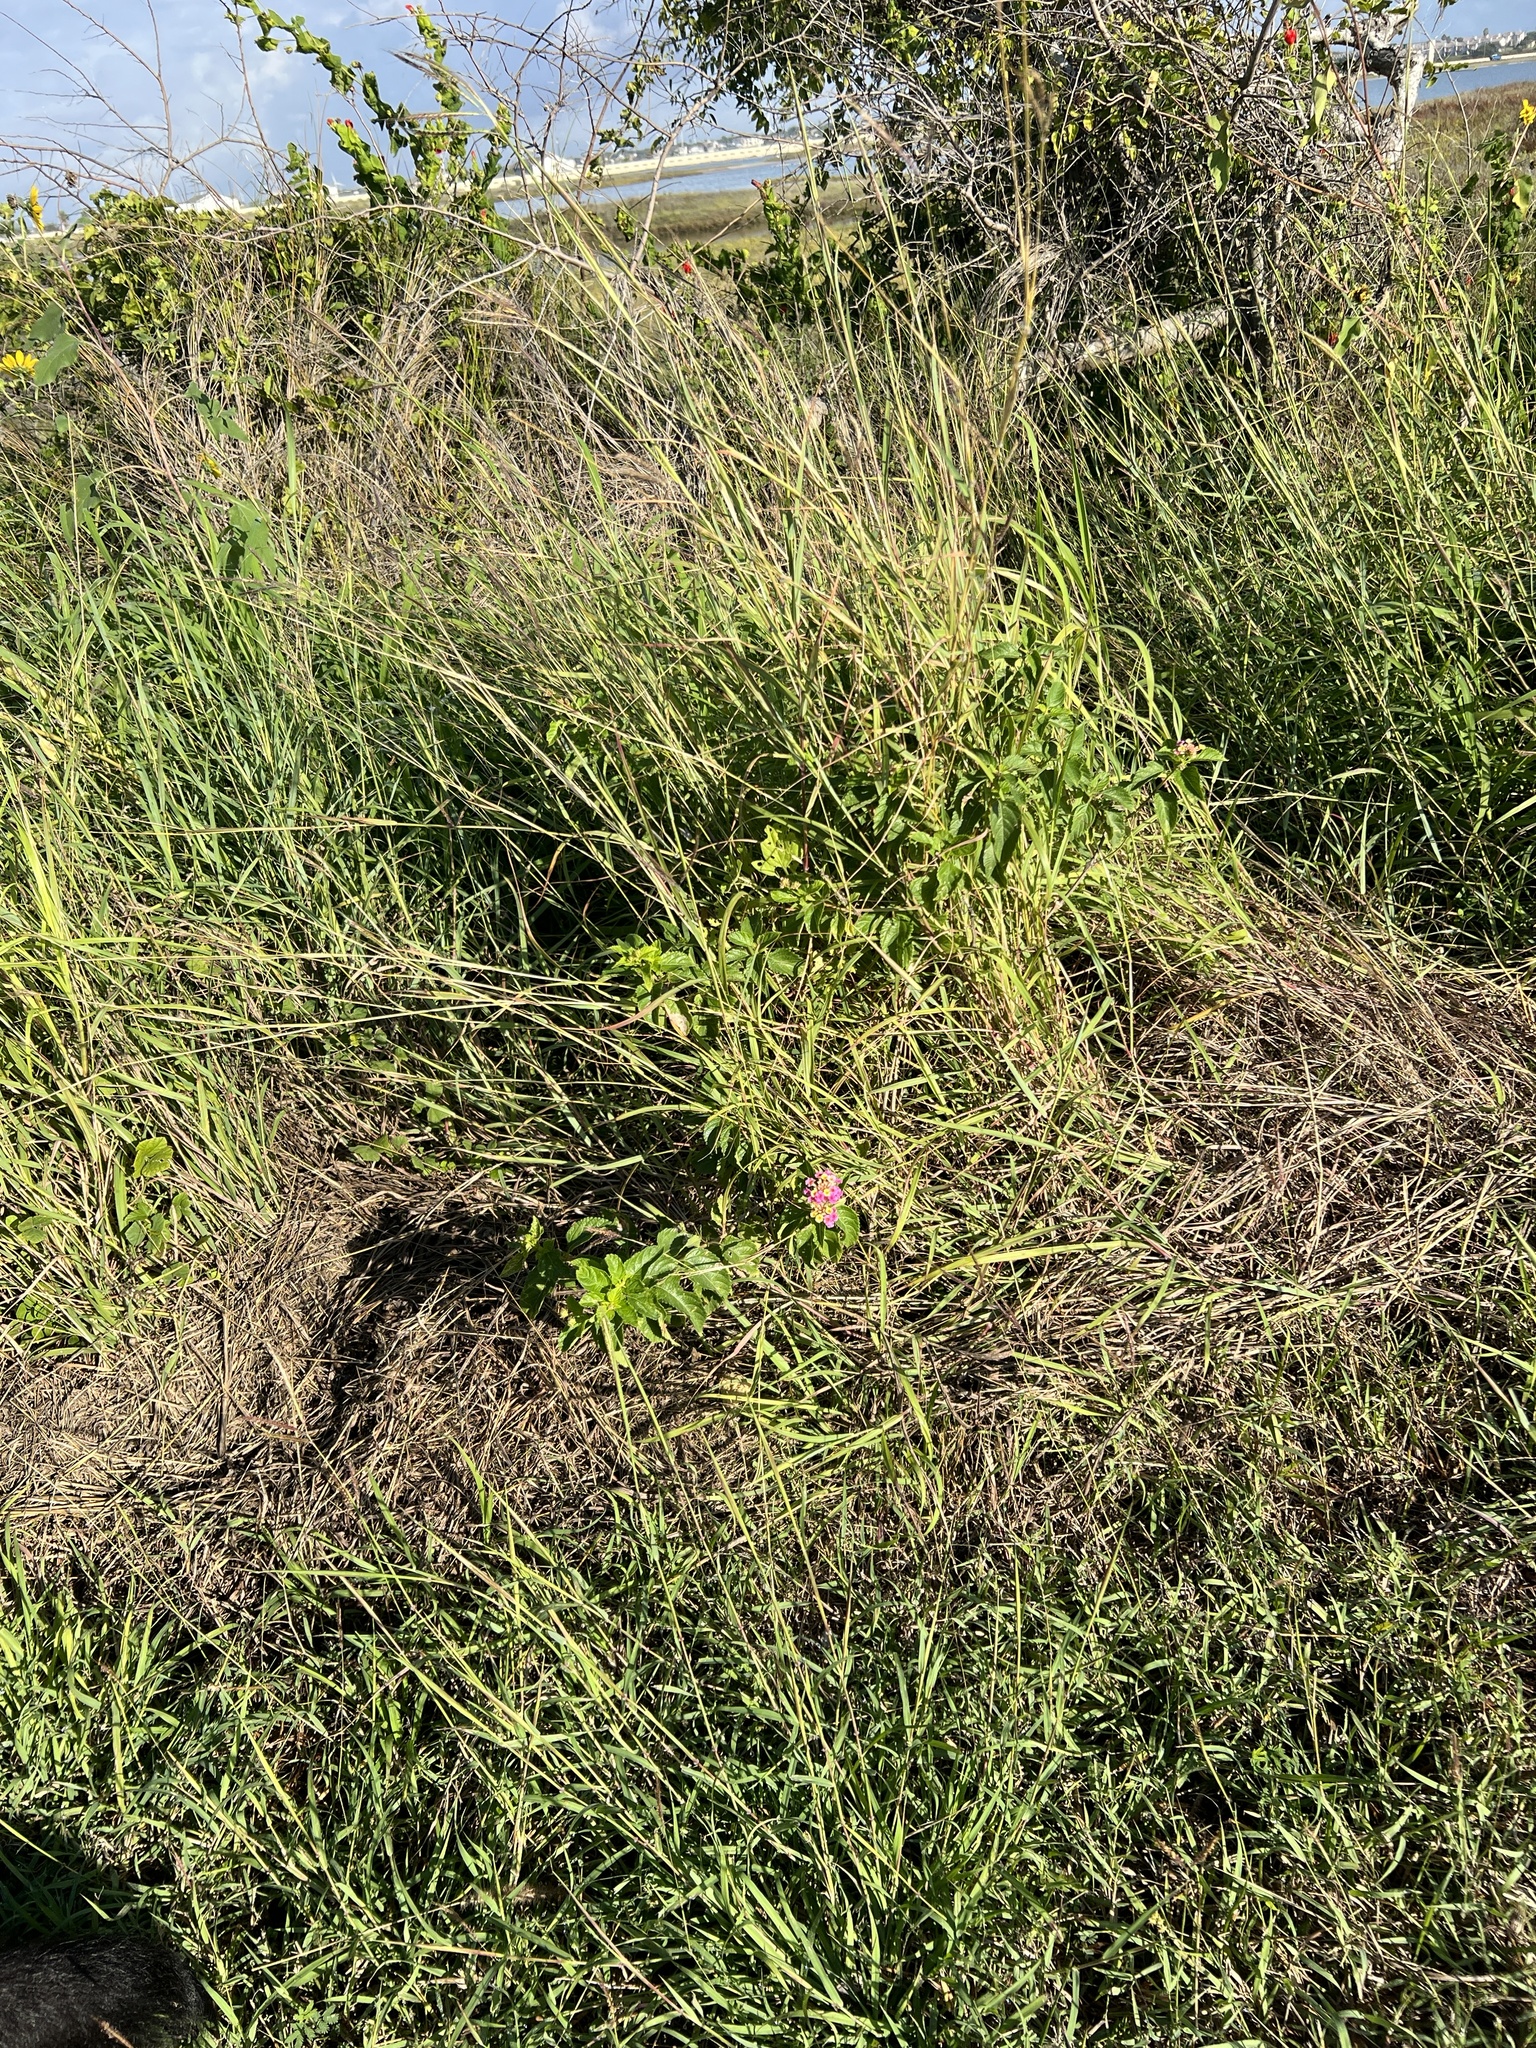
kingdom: Plantae
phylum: Tracheophyta
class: Magnoliopsida
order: Lamiales
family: Verbenaceae
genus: Lantana
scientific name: Lantana strigocamara
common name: Lantana
